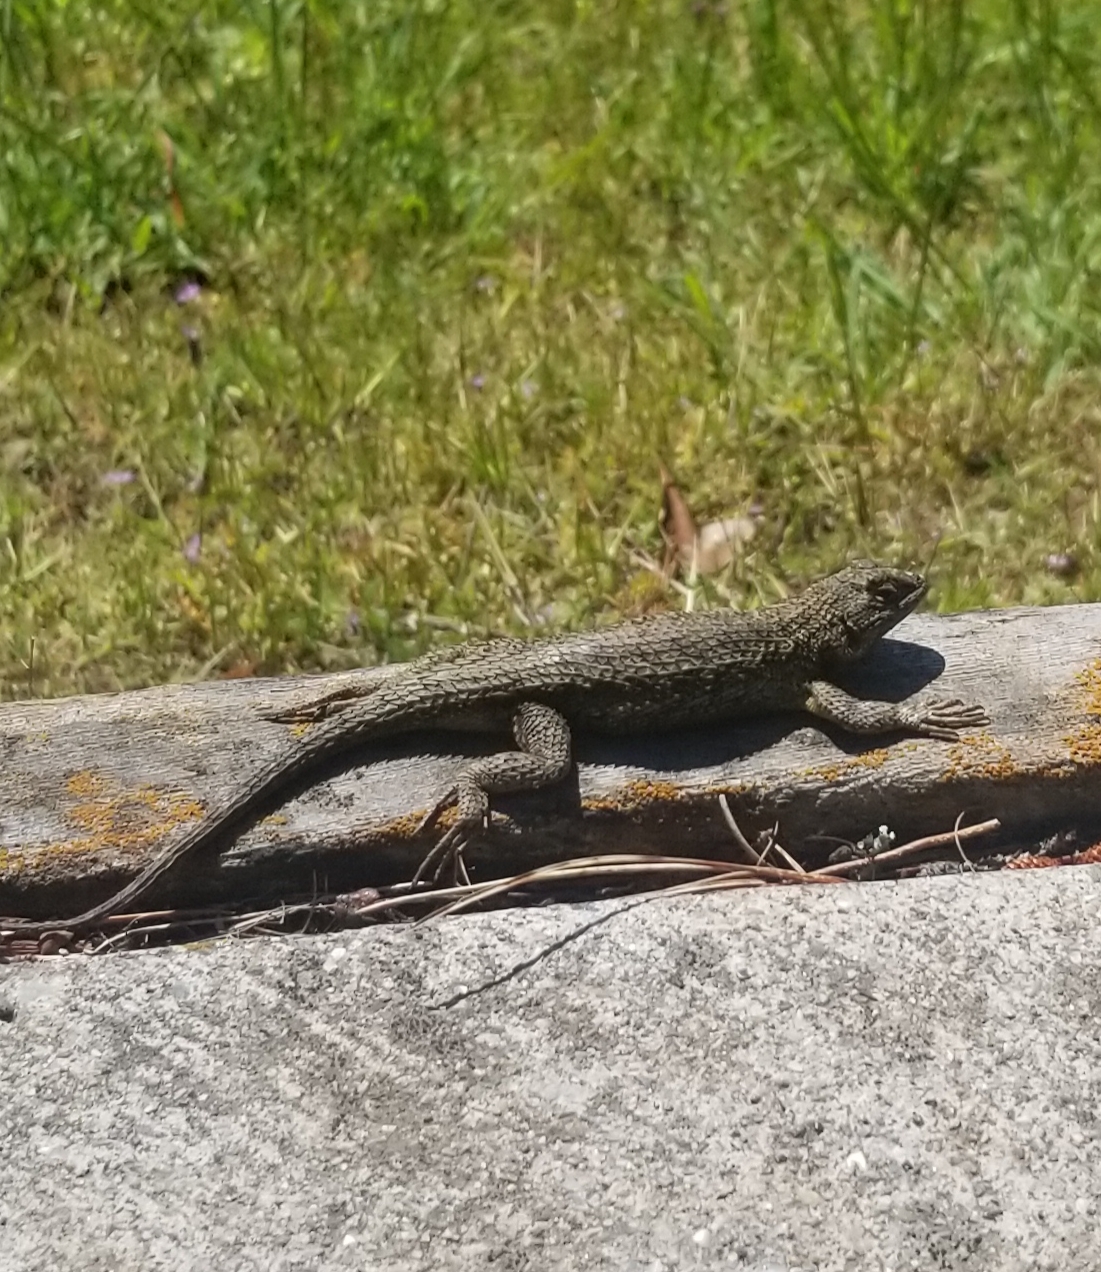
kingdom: Animalia
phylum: Chordata
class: Squamata
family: Phrynosomatidae
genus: Sceloporus
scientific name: Sceloporus occidentalis
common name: Western fence lizard
